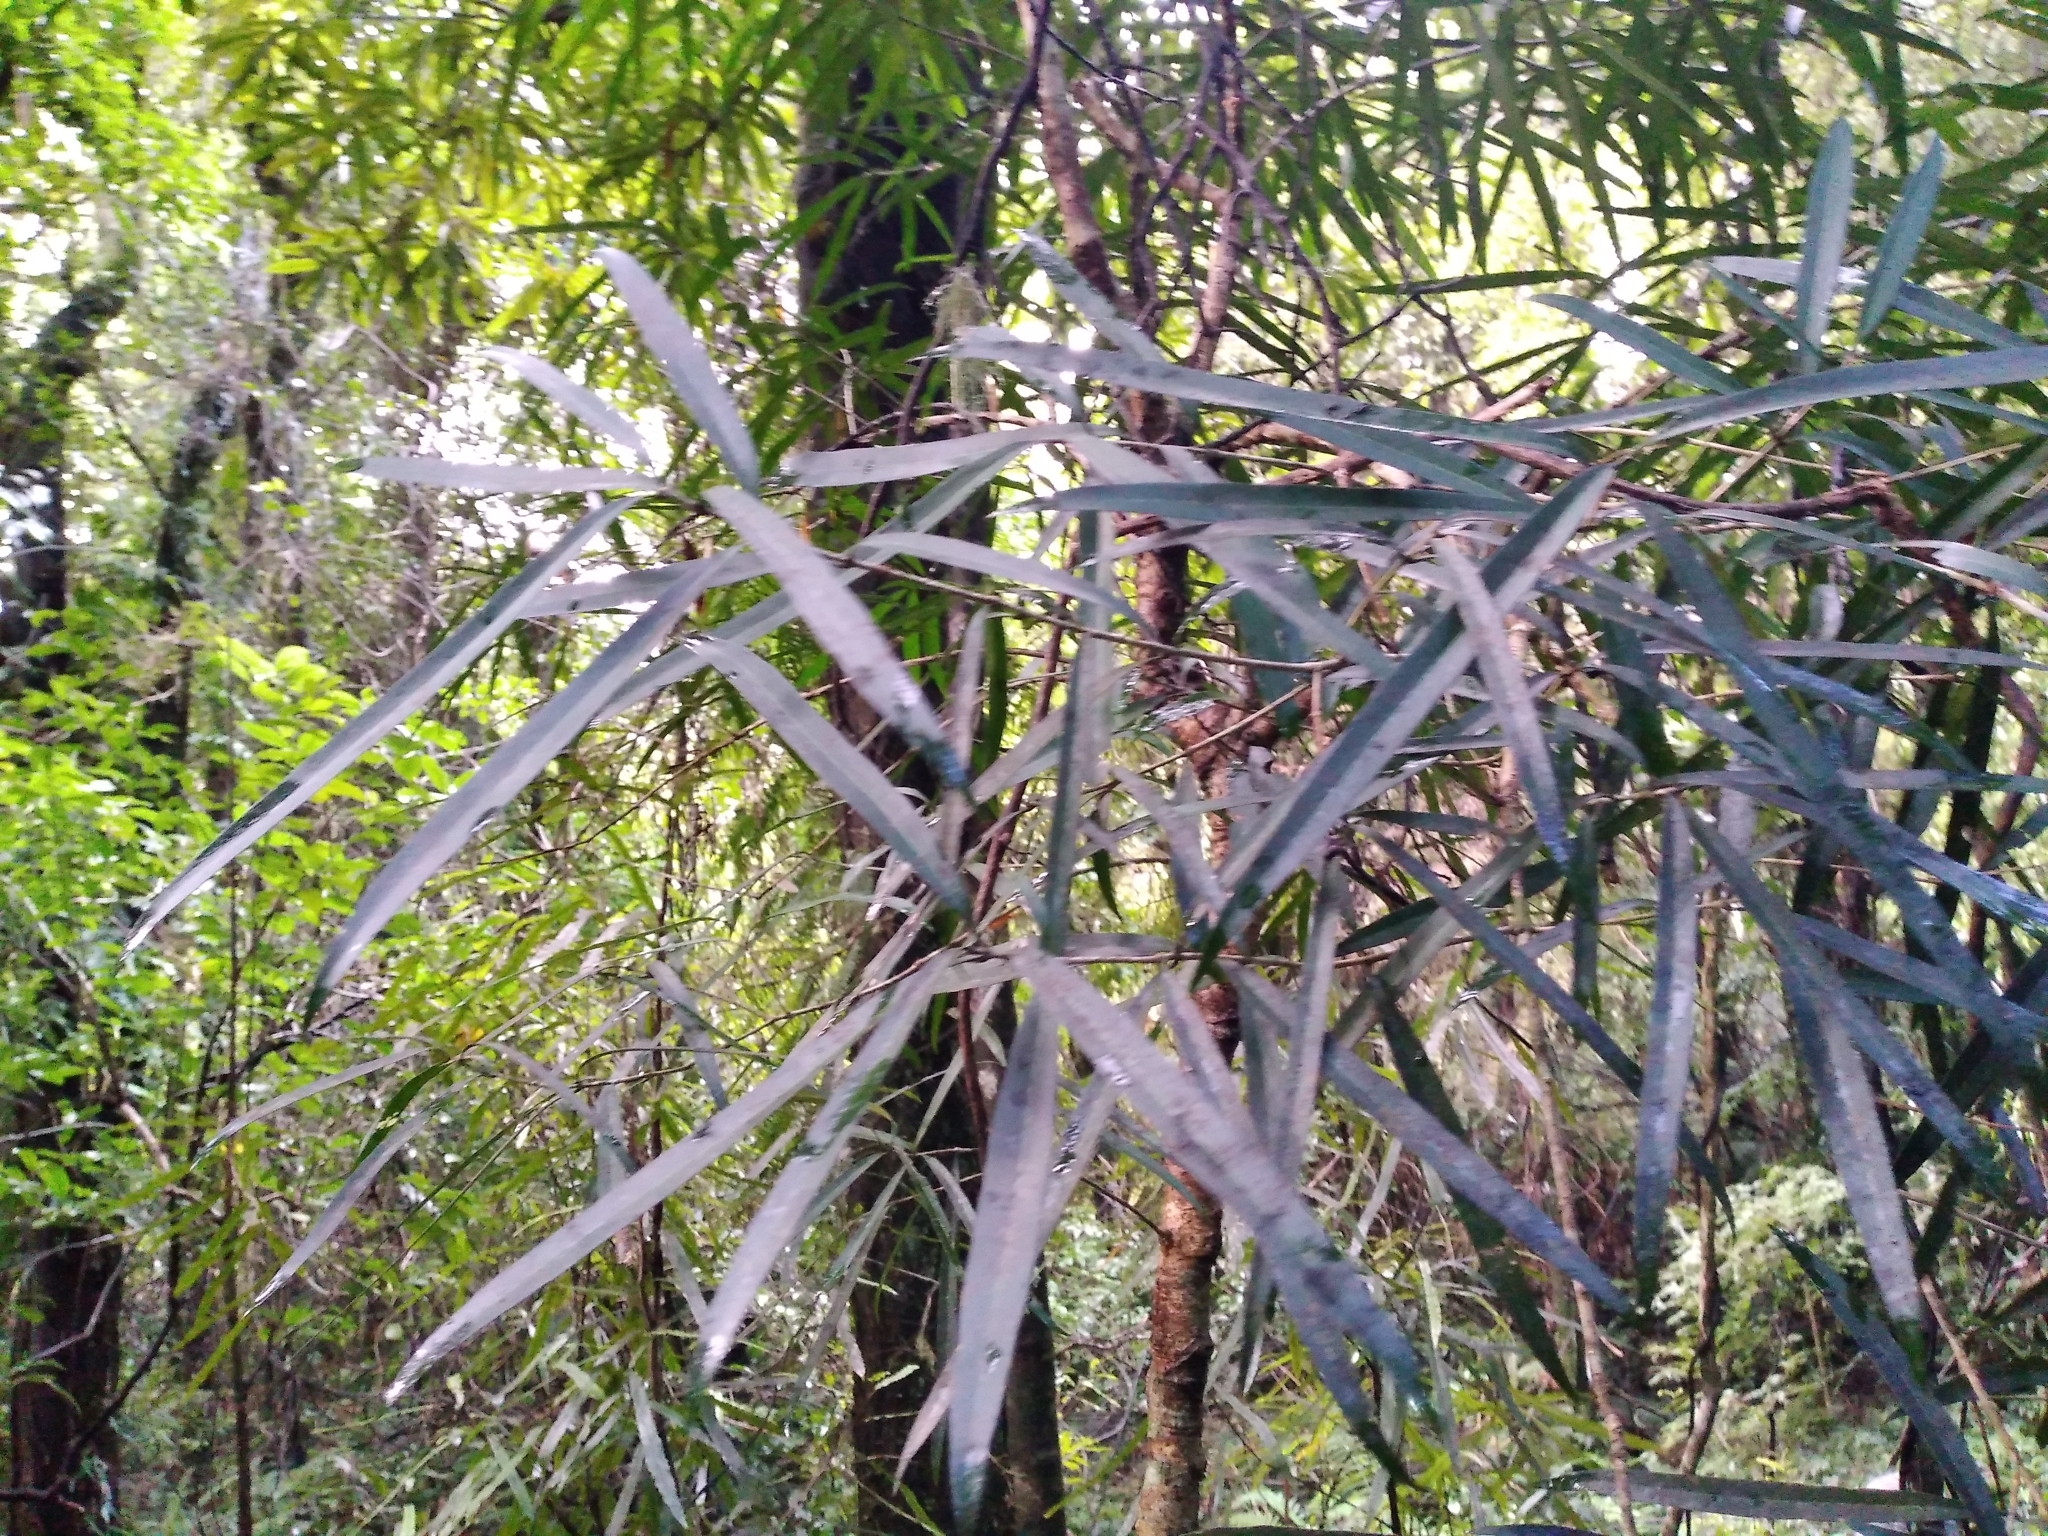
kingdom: Plantae
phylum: Tracheophyta
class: Magnoliopsida
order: Lamiales
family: Oleaceae
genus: Nestegis
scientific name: Nestegis lanceolata
